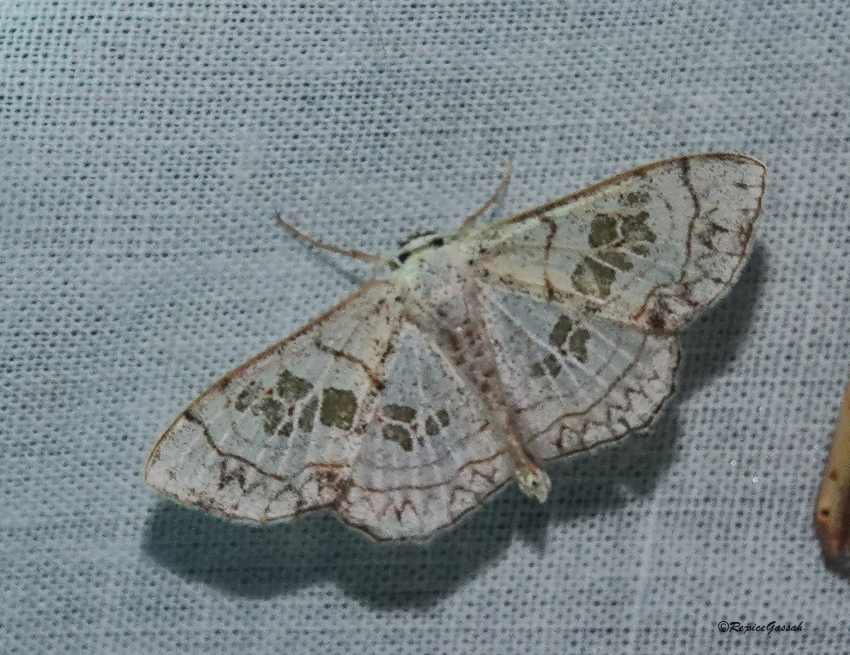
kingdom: Animalia
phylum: Arthropoda
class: Insecta
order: Lepidoptera
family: Geometridae
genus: Scopula
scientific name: Scopula
